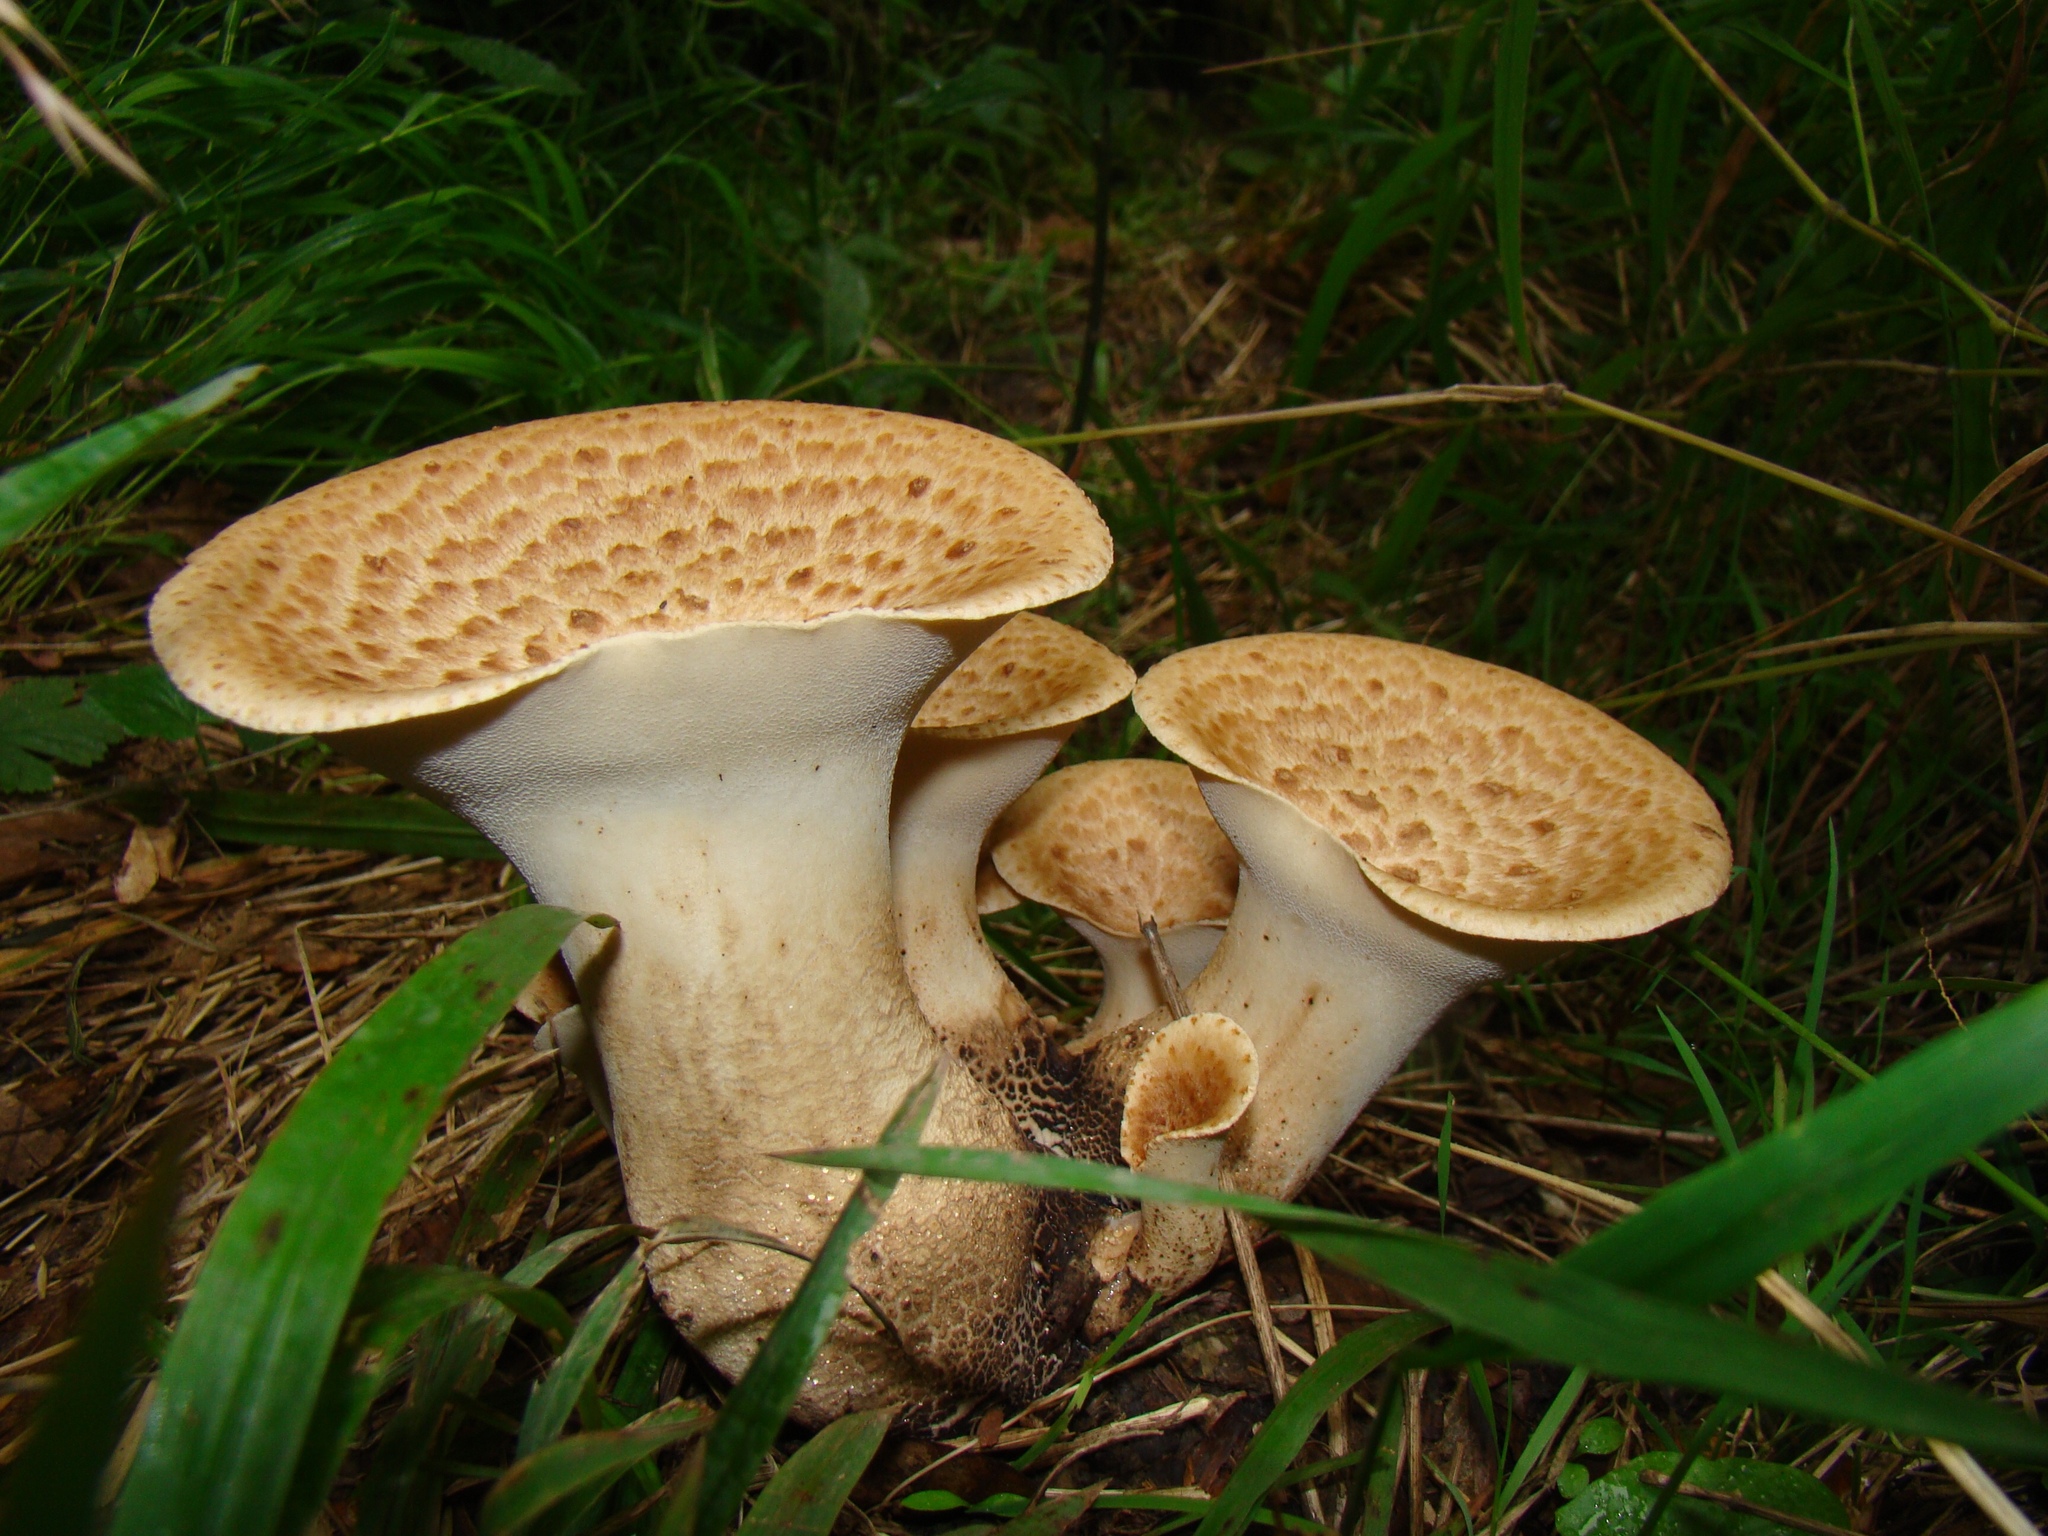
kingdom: Fungi
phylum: Basidiomycota
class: Agaricomycetes
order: Polyporales
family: Polyporaceae
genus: Cerioporus
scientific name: Cerioporus squamosus
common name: Dryad's saddle
